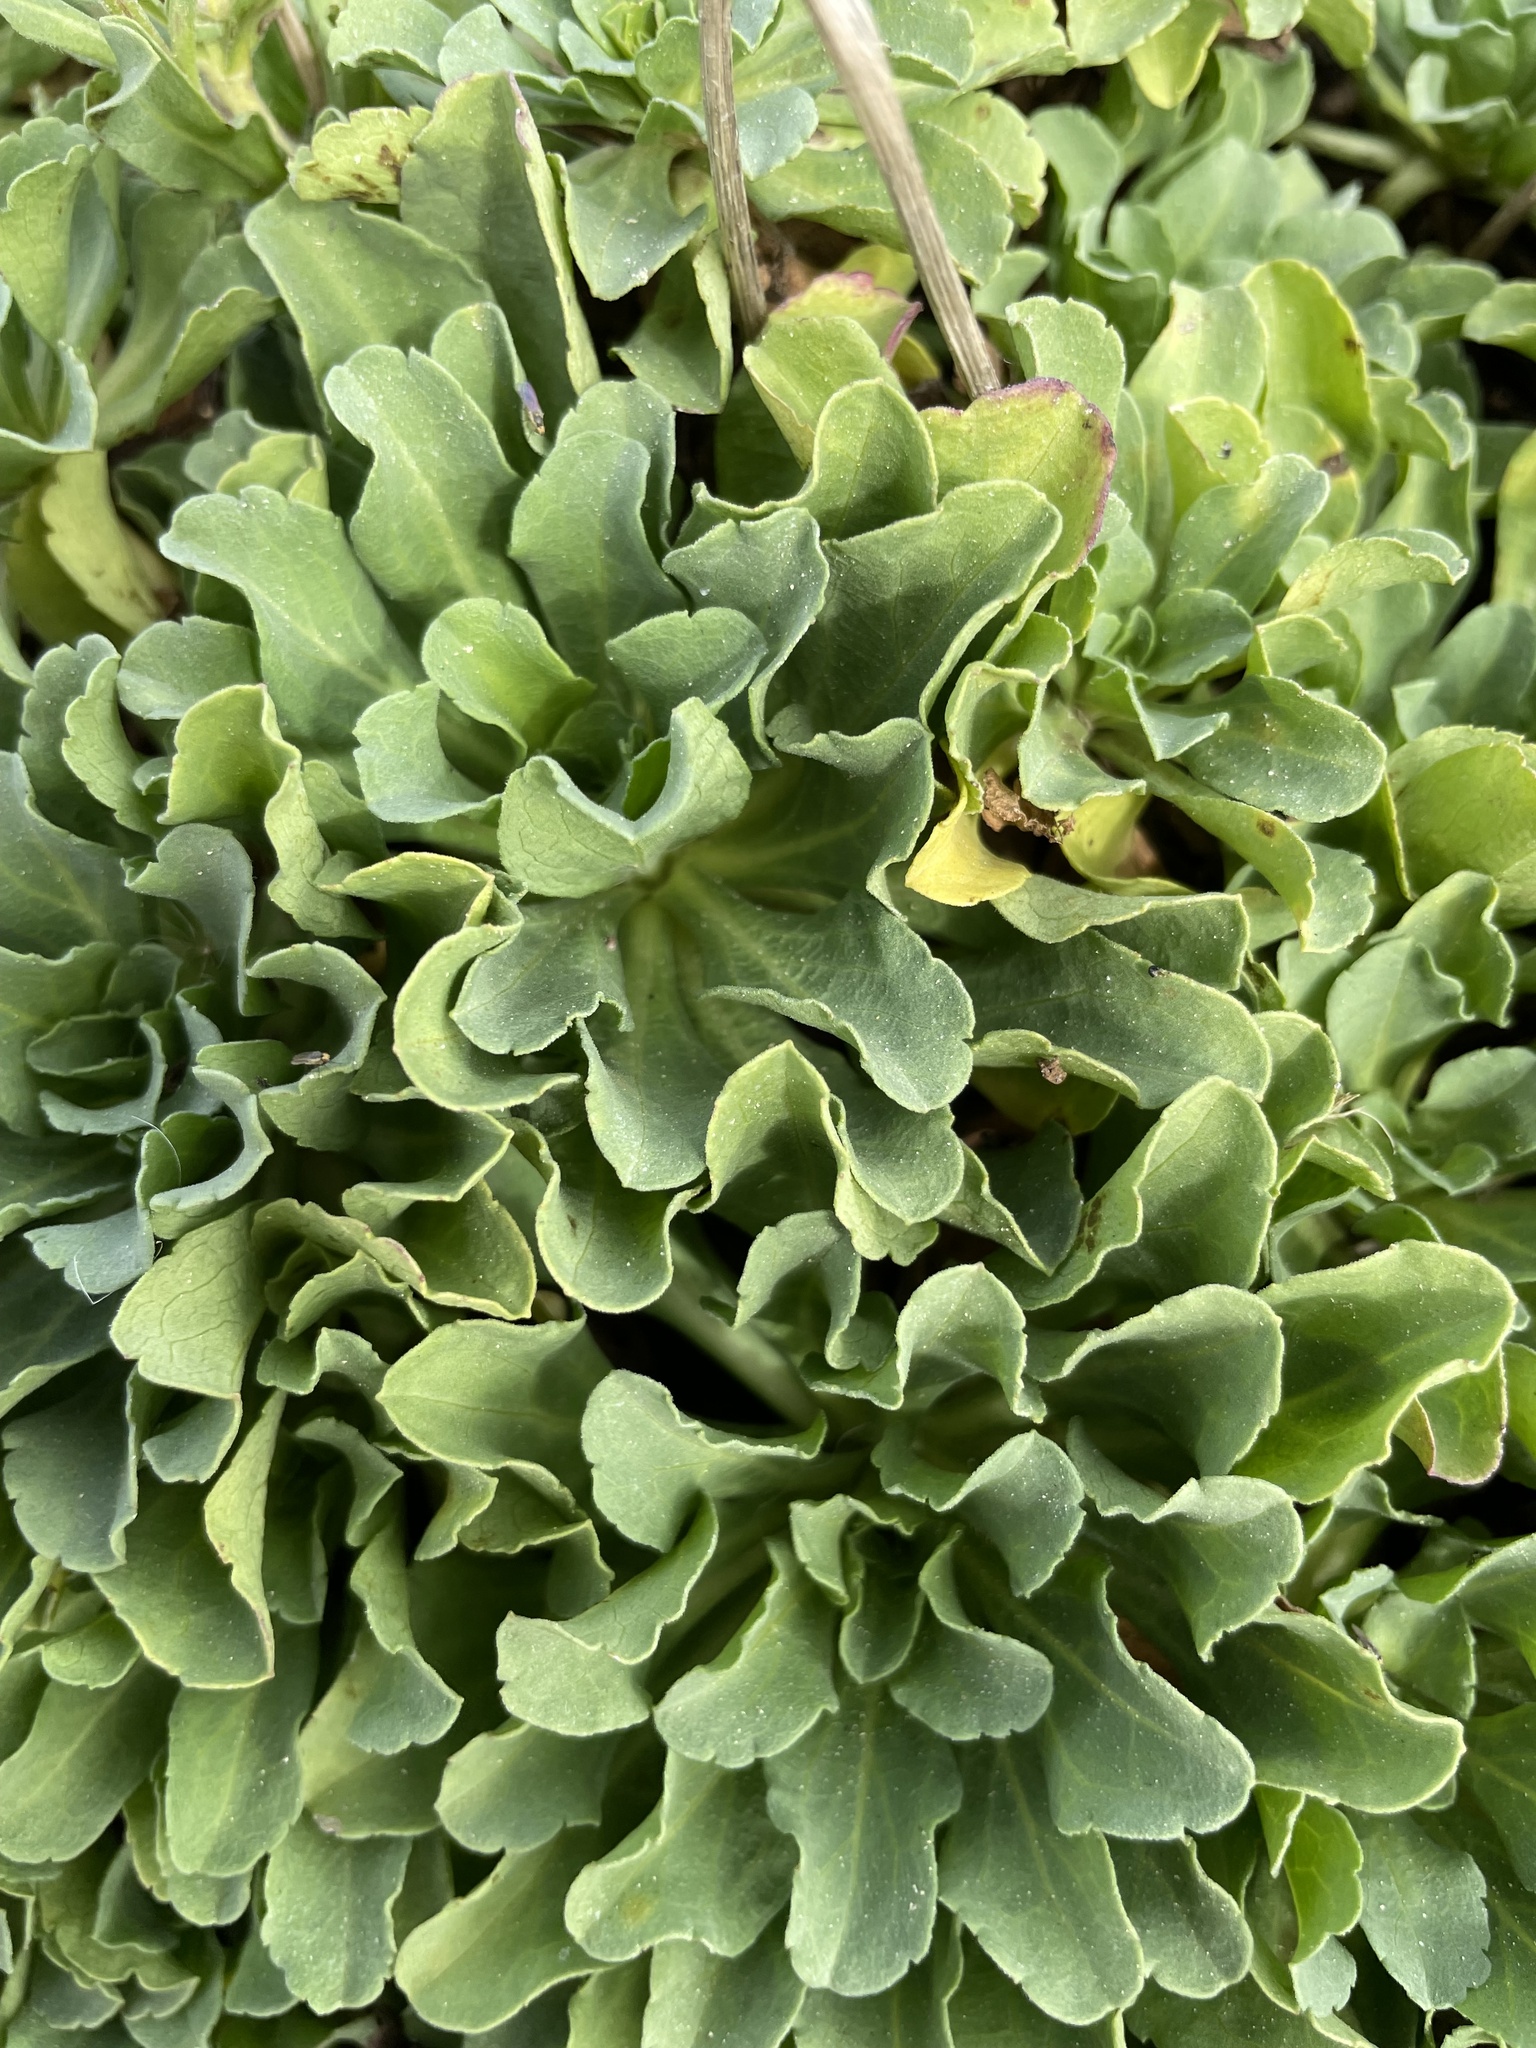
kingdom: Plantae
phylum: Tracheophyta
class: Magnoliopsida
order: Asterales
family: Asteraceae
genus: Erigeron
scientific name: Erigeron glaucus
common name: Seaside daisy
